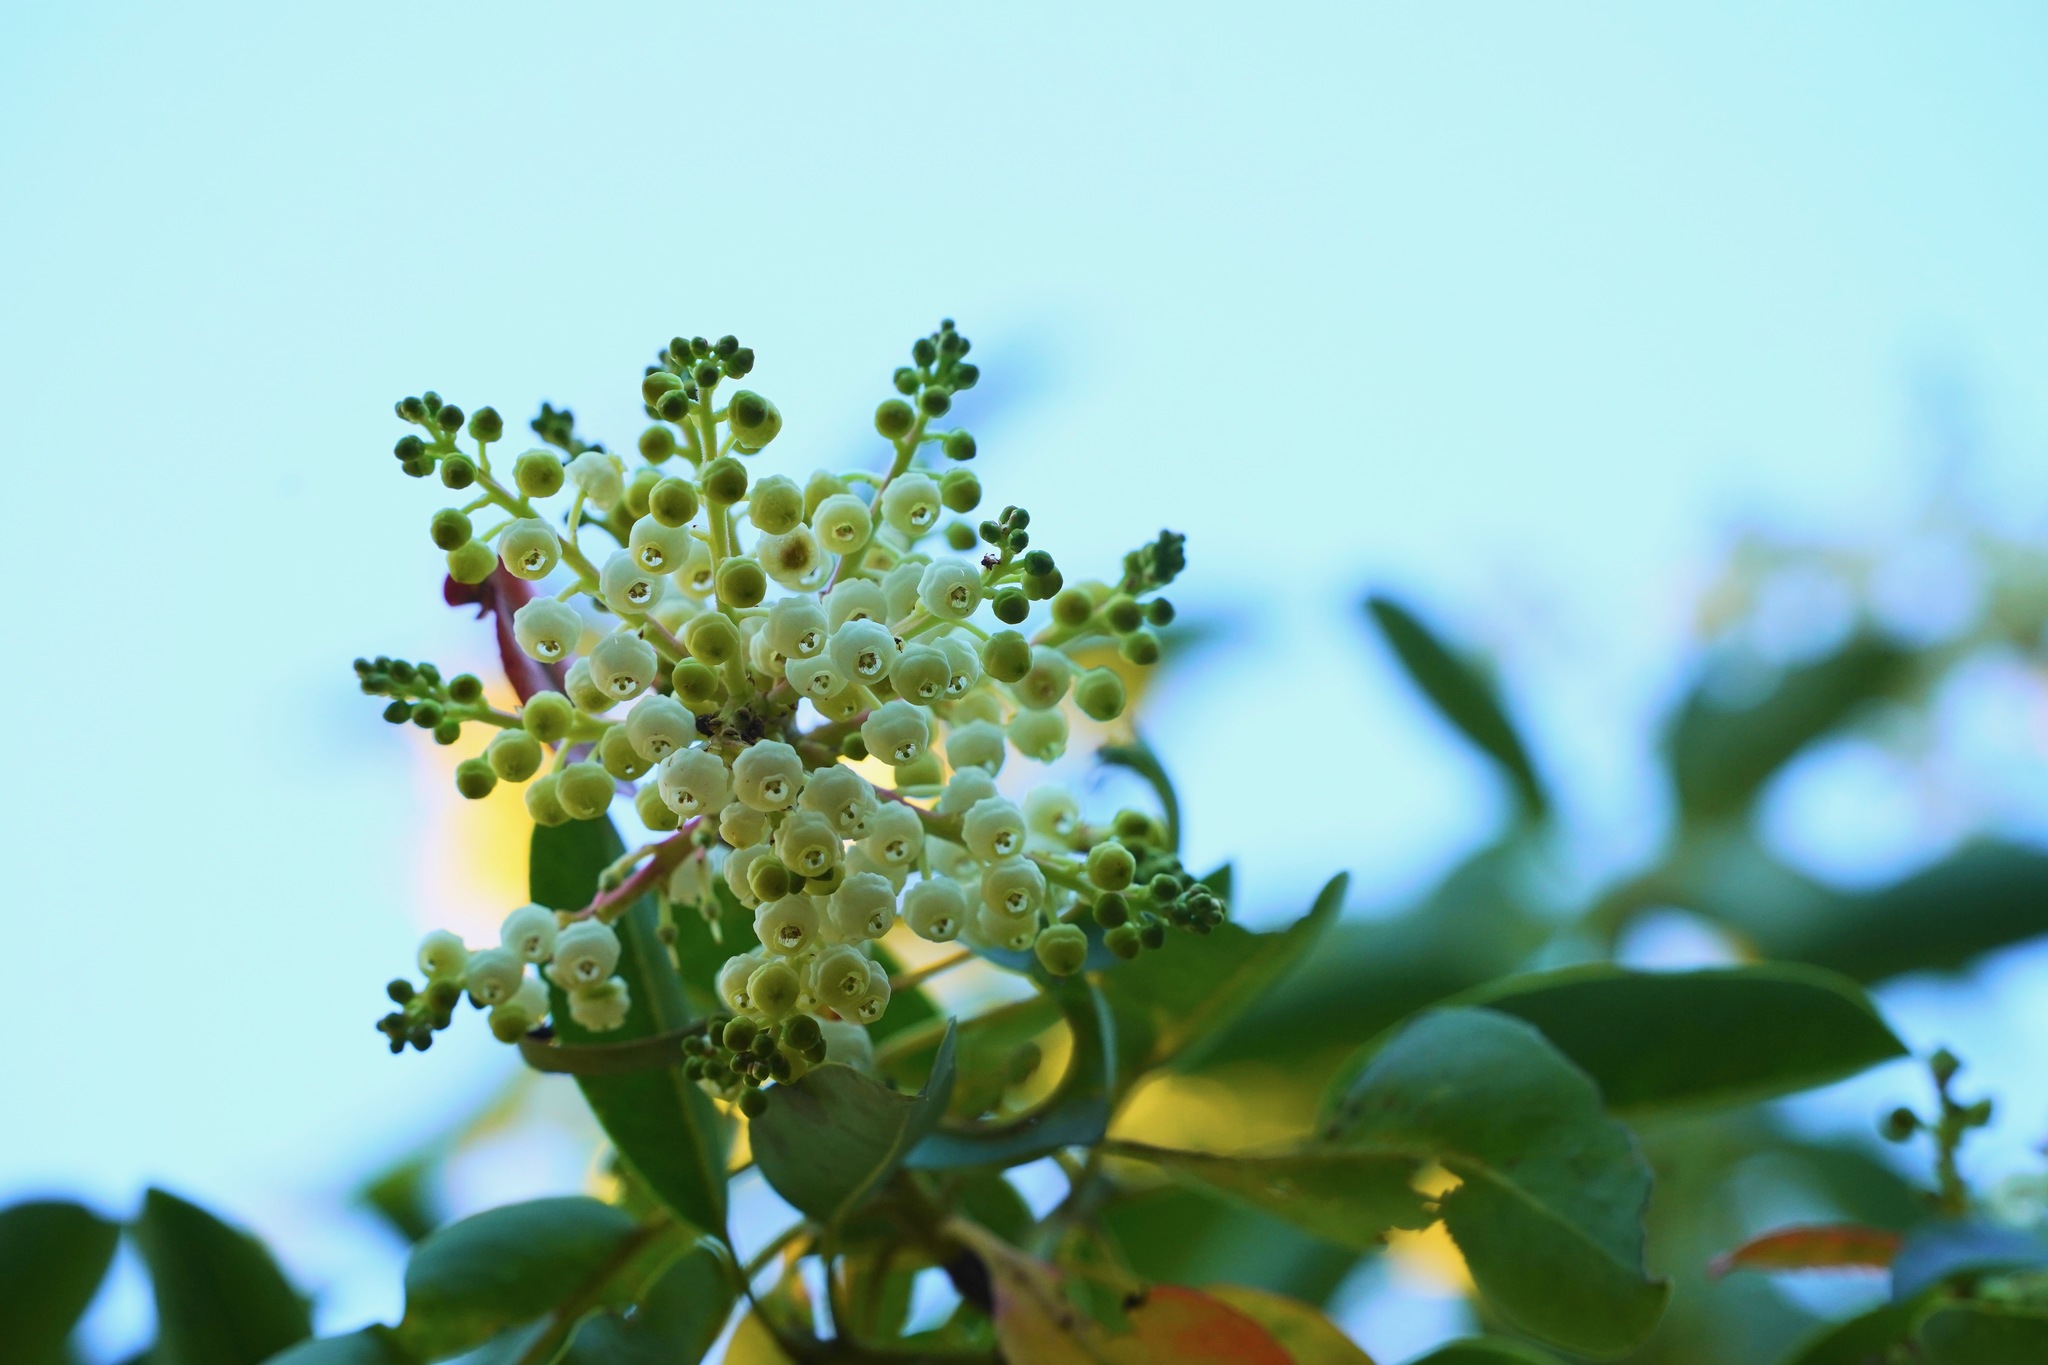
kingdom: Plantae
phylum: Tracheophyta
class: Magnoliopsida
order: Ericales
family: Ericaceae
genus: Arbutus
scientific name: Arbutus menziesii
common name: Pacific madrone
